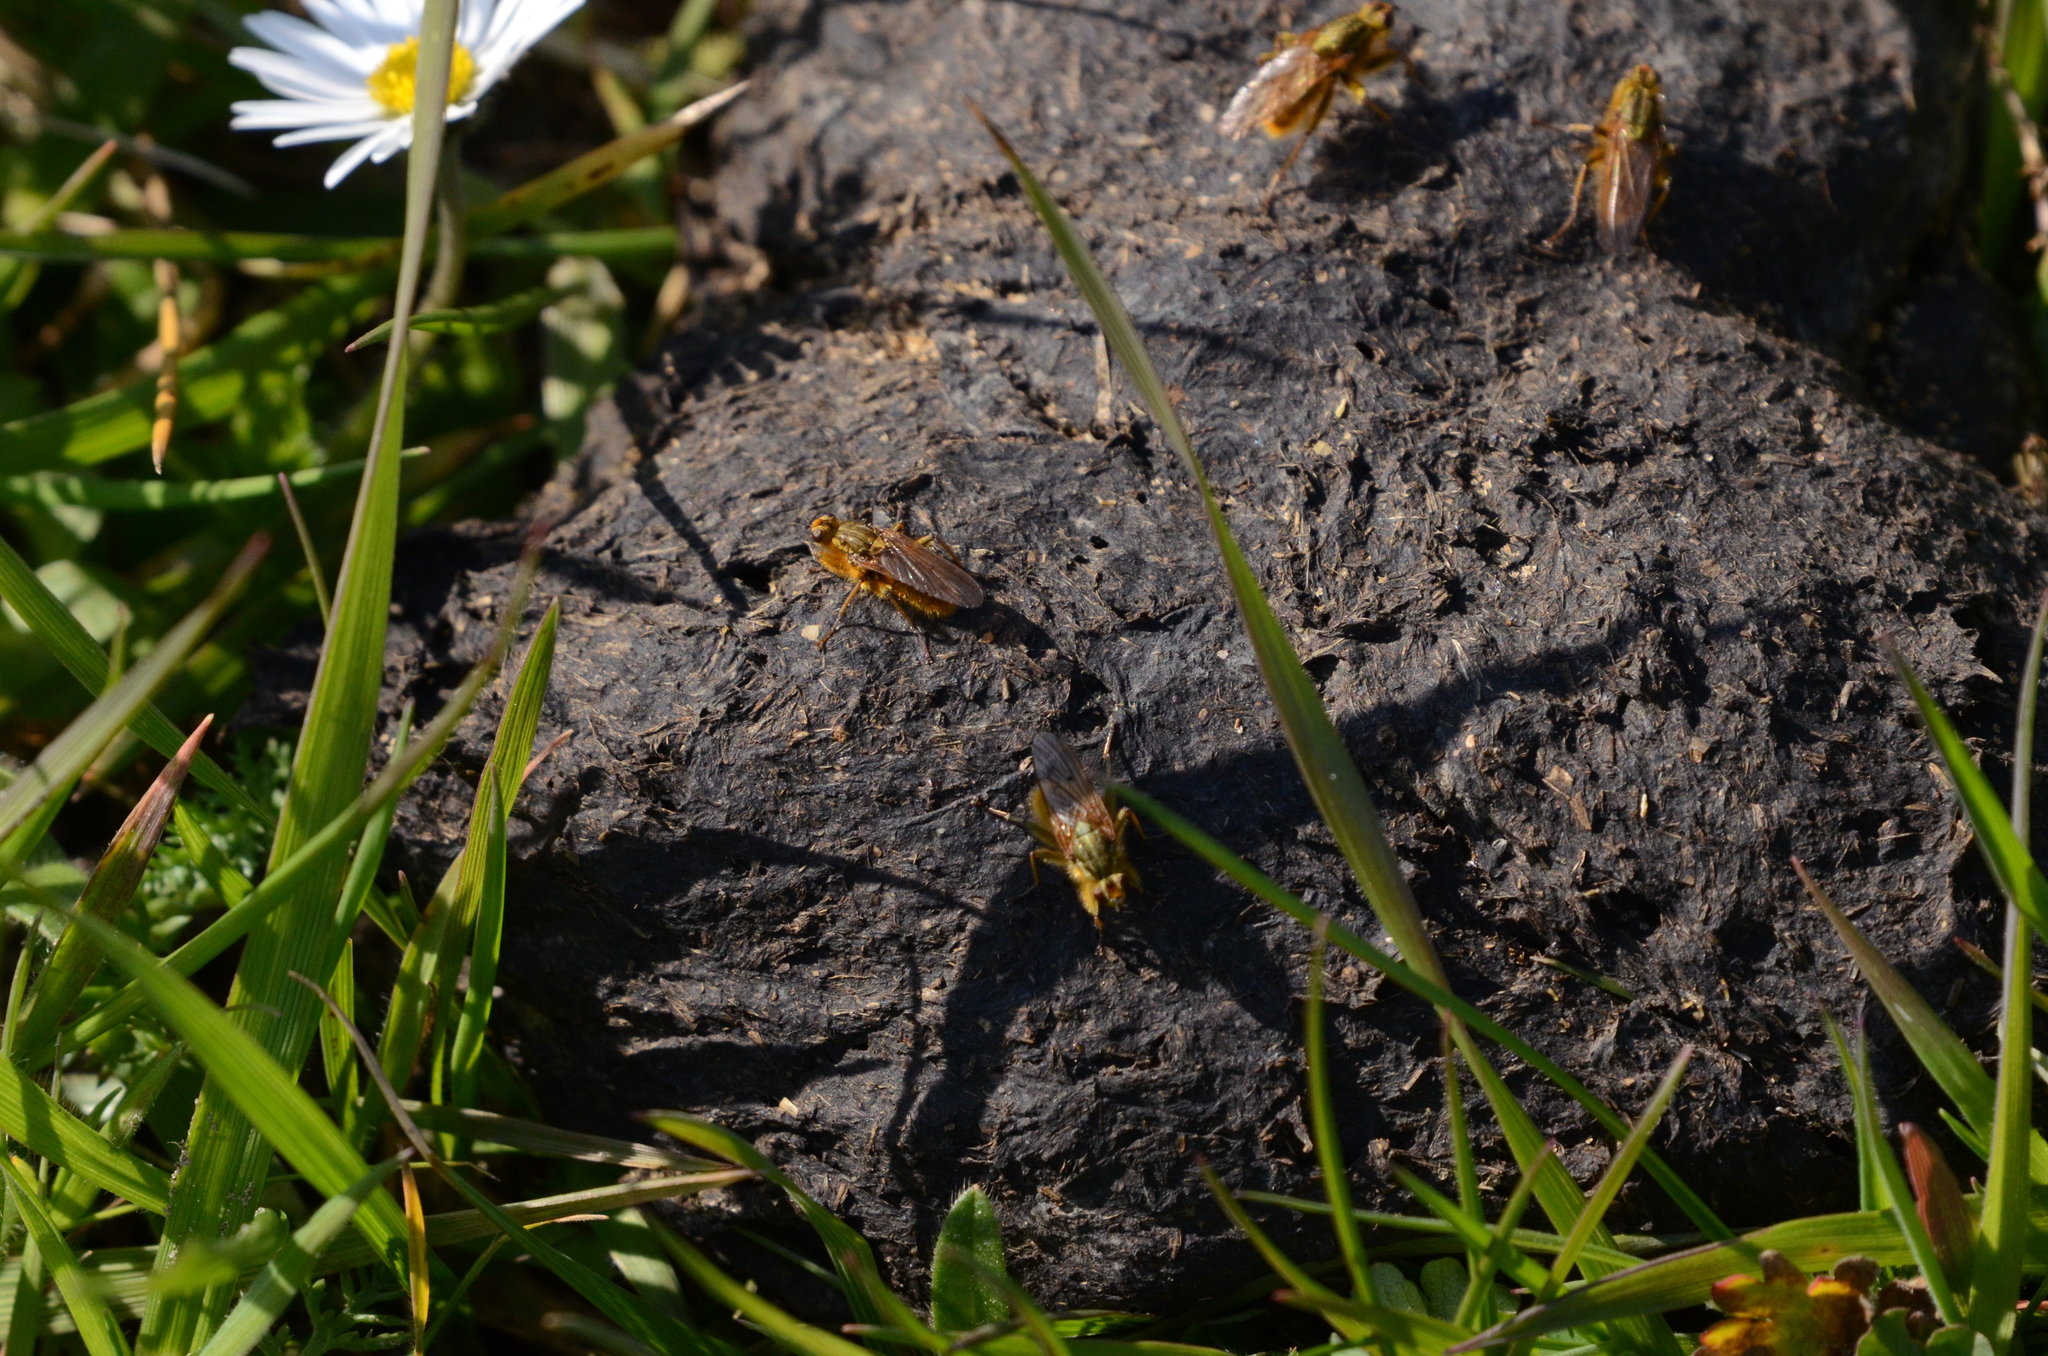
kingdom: Animalia
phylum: Arthropoda
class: Insecta
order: Diptera
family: Scathophagidae
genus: Scathophaga
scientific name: Scathophaga stercoraria
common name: Yellow dung fly
